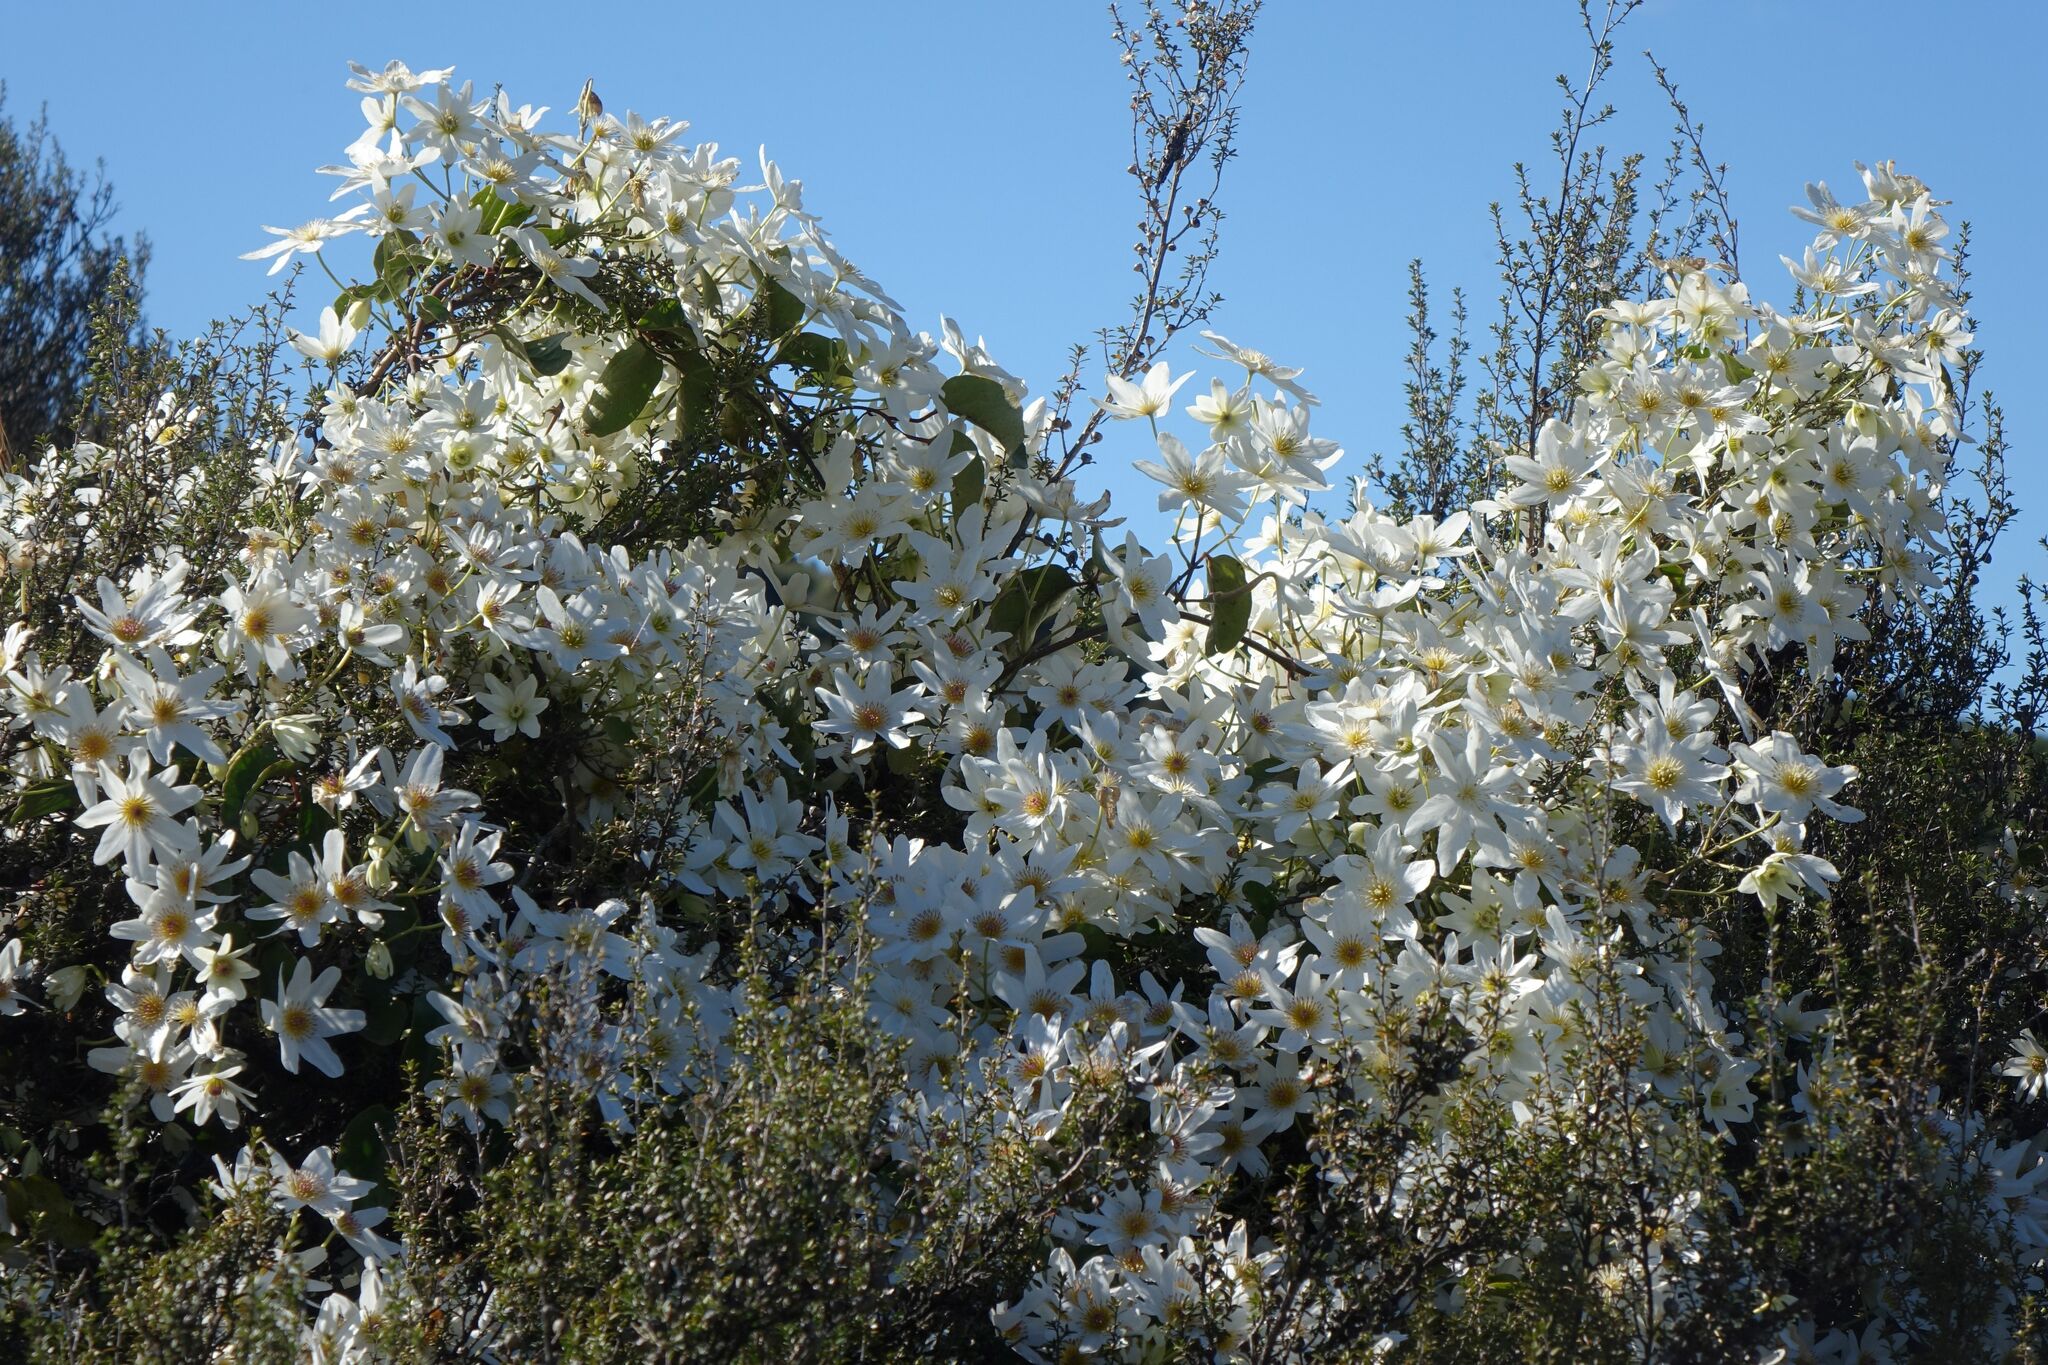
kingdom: Plantae
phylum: Tracheophyta
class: Magnoliopsida
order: Ranunculales
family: Ranunculaceae
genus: Clematis
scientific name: Clematis paniculata
